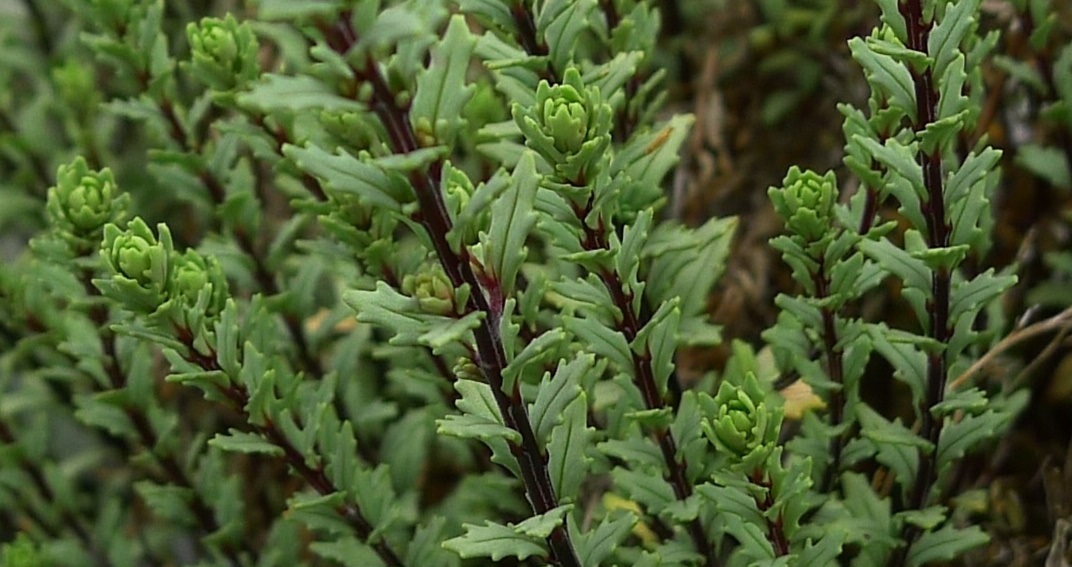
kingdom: Plantae
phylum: Tracheophyta
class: Magnoliopsida
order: Myrtales
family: Onagraceae
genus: Epilobium
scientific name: Epilobium melanocaulon
